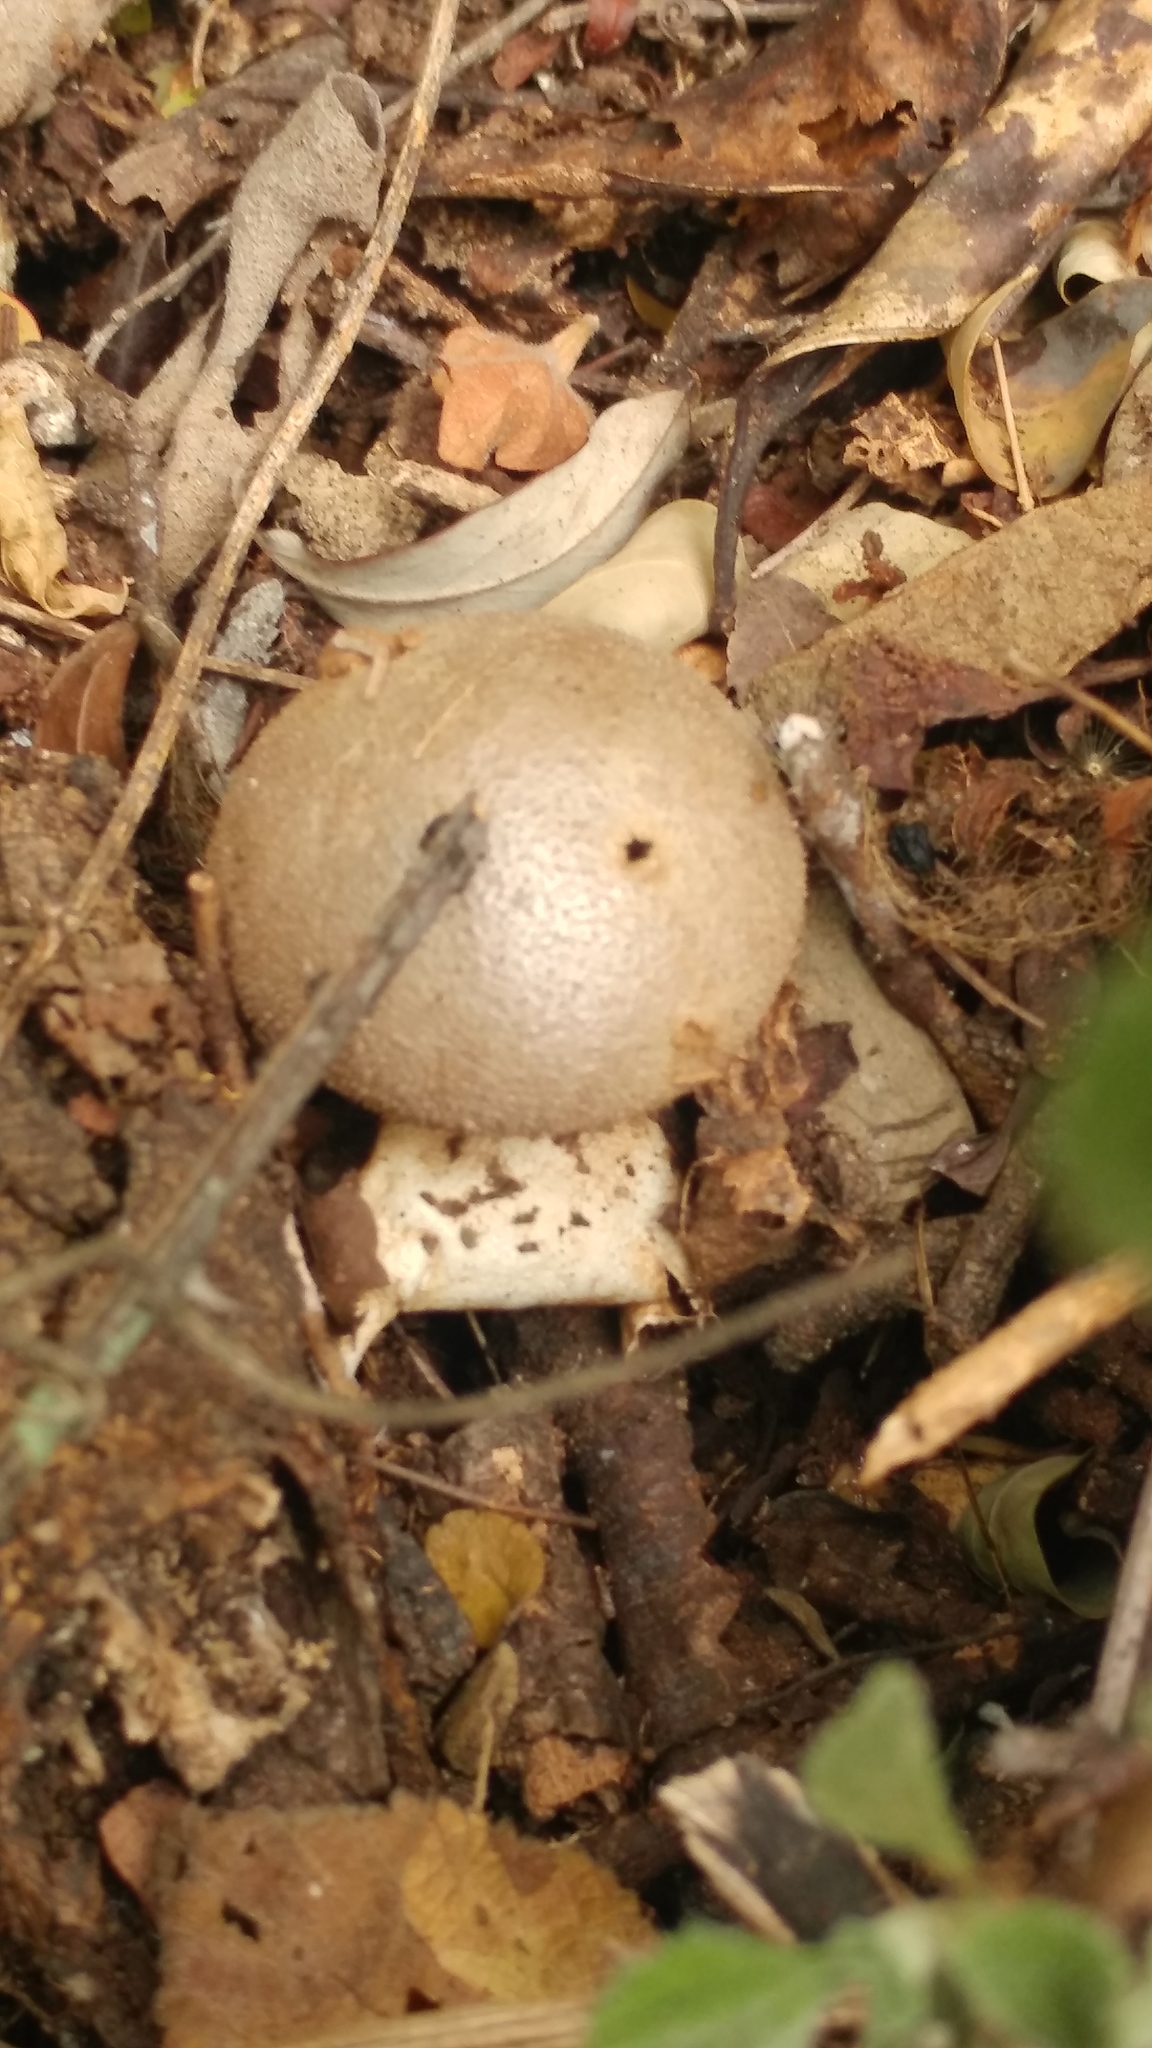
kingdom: Fungi
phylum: Basidiomycota
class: Agaricomycetes
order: Geastrales
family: Geastraceae
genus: Myriostoma
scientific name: Myriostoma coliforme
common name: Pepper pot
